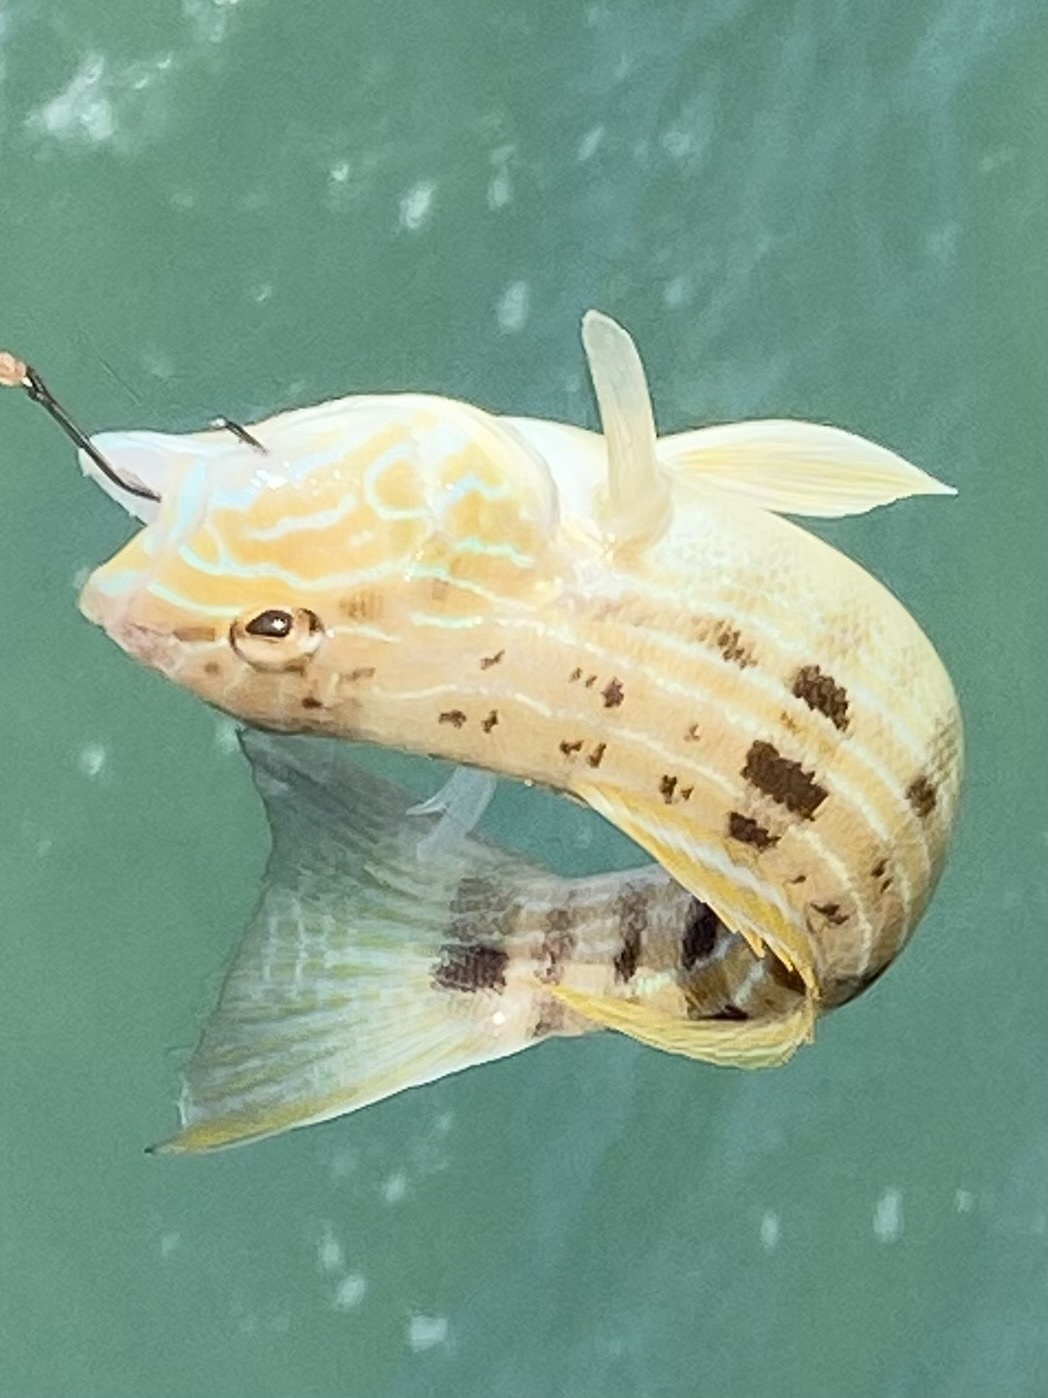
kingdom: Animalia
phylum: Chordata
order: Perciformes
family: Serranidae
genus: Diplectrum
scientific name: Diplectrum formosum
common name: Sand perch
